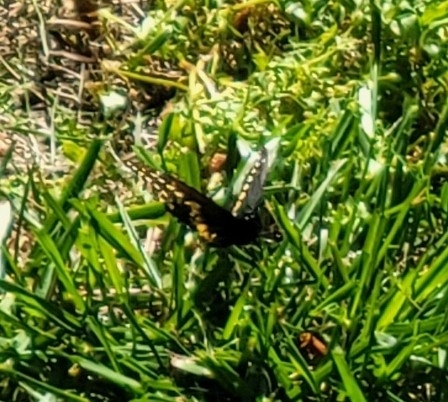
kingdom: Animalia
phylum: Arthropoda
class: Insecta
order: Lepidoptera
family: Papilionidae
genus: Papilio
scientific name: Papilio polyxenes
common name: Black swallowtail
